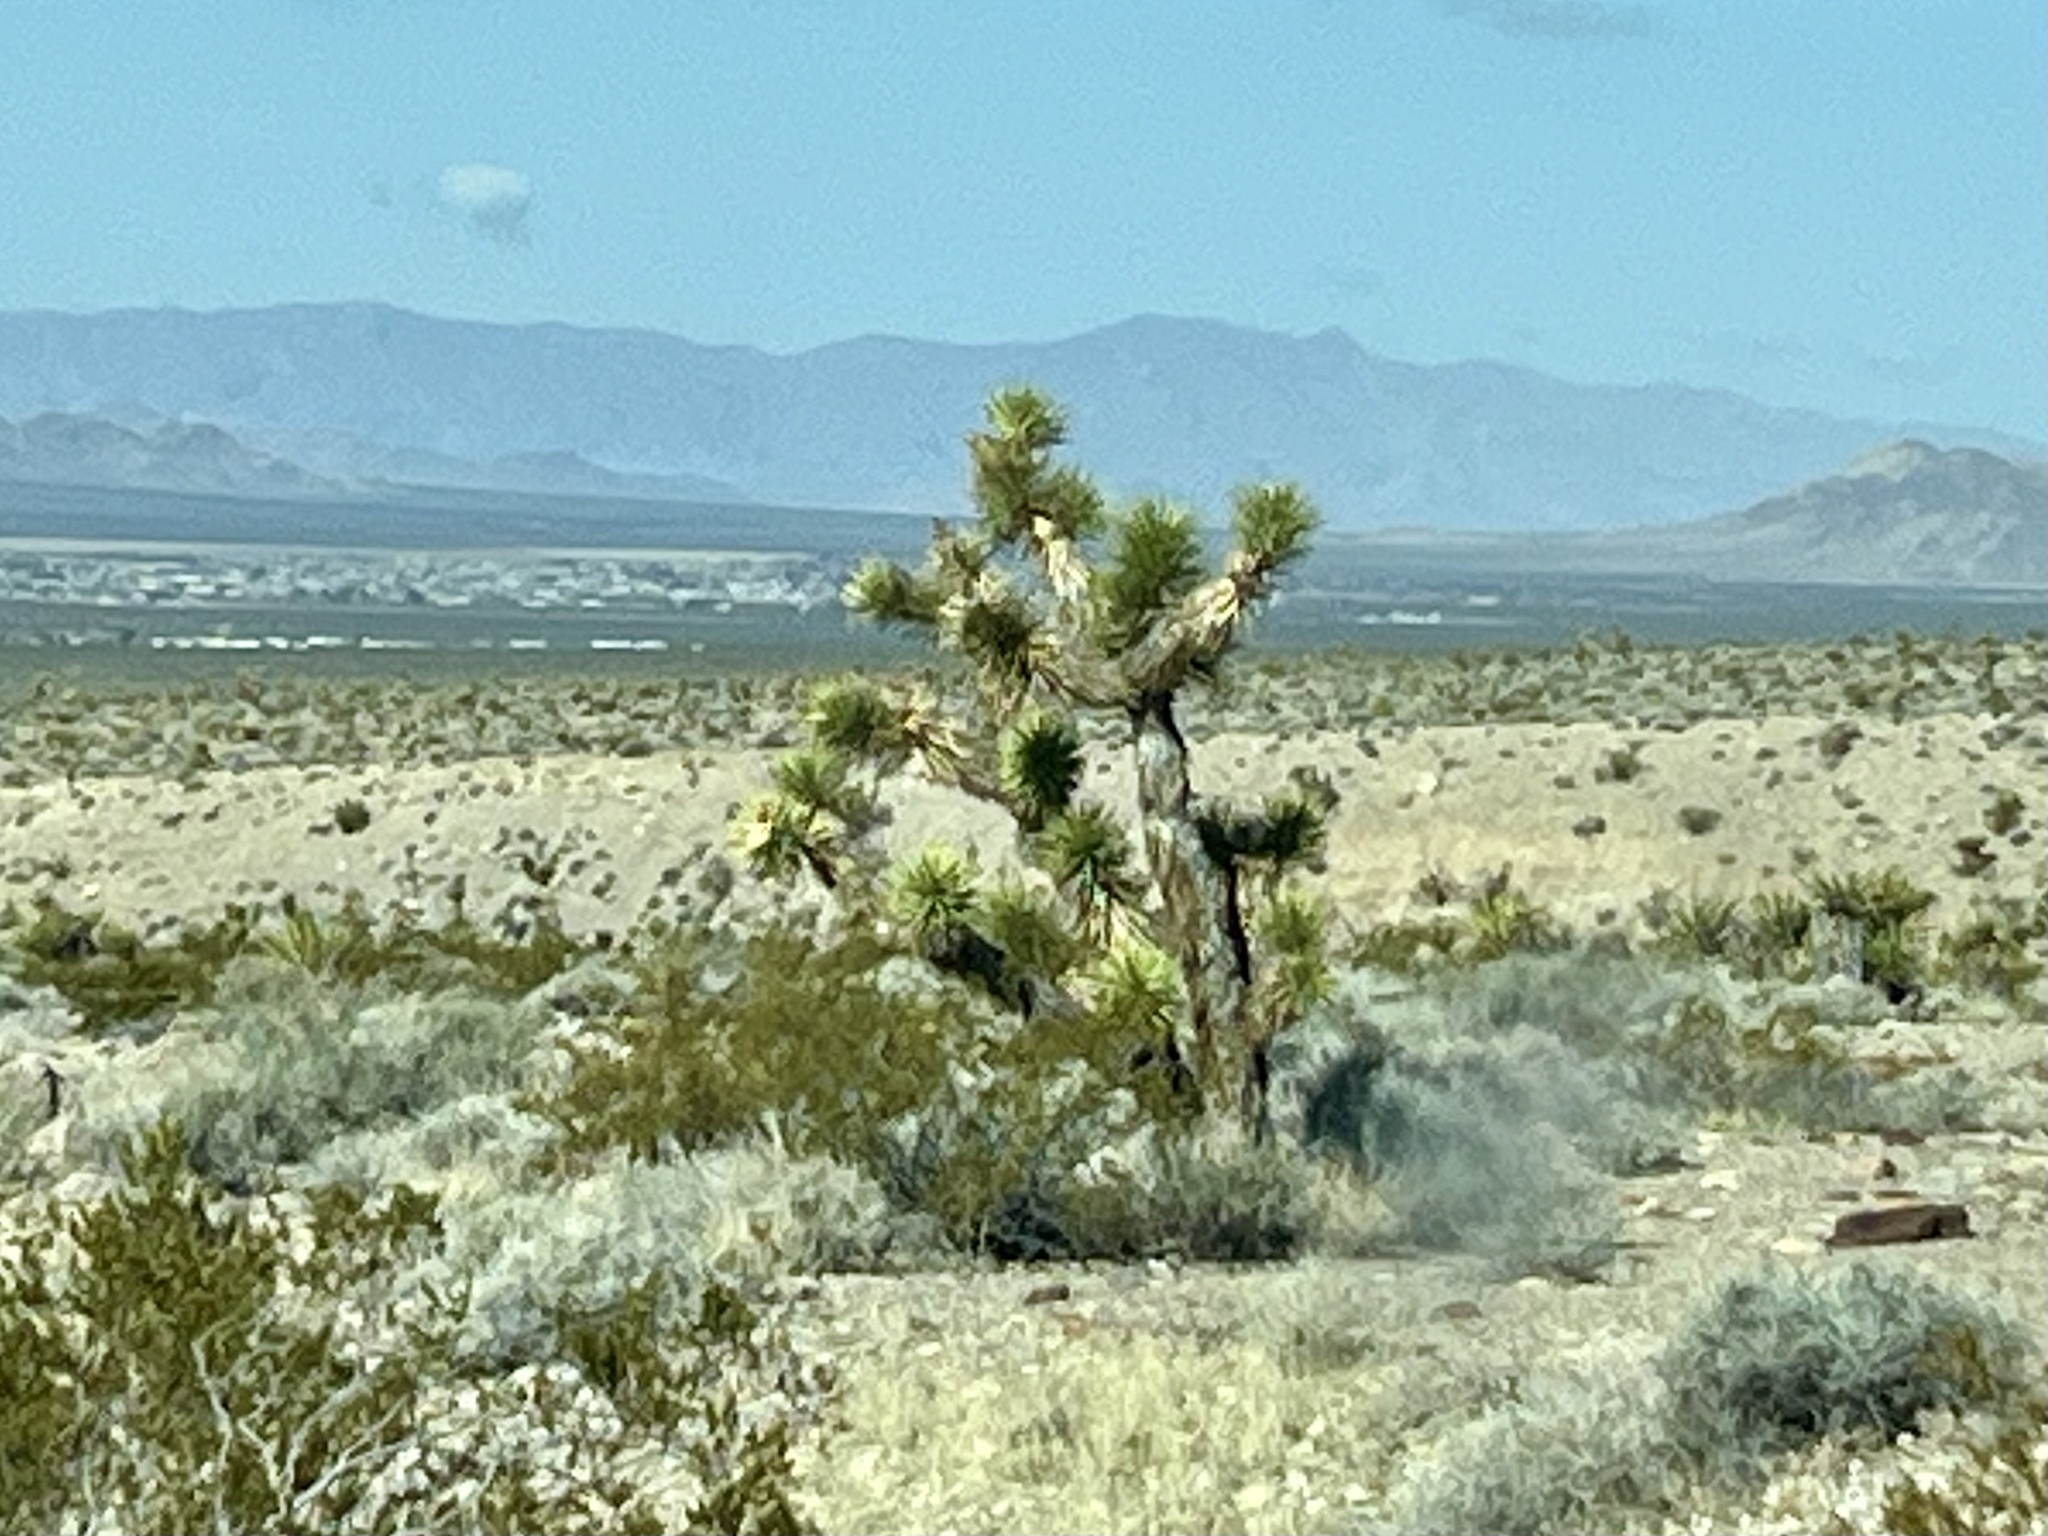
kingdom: Plantae
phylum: Tracheophyta
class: Liliopsida
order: Asparagales
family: Asparagaceae
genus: Yucca
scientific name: Yucca brevifolia
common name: Joshua tree
